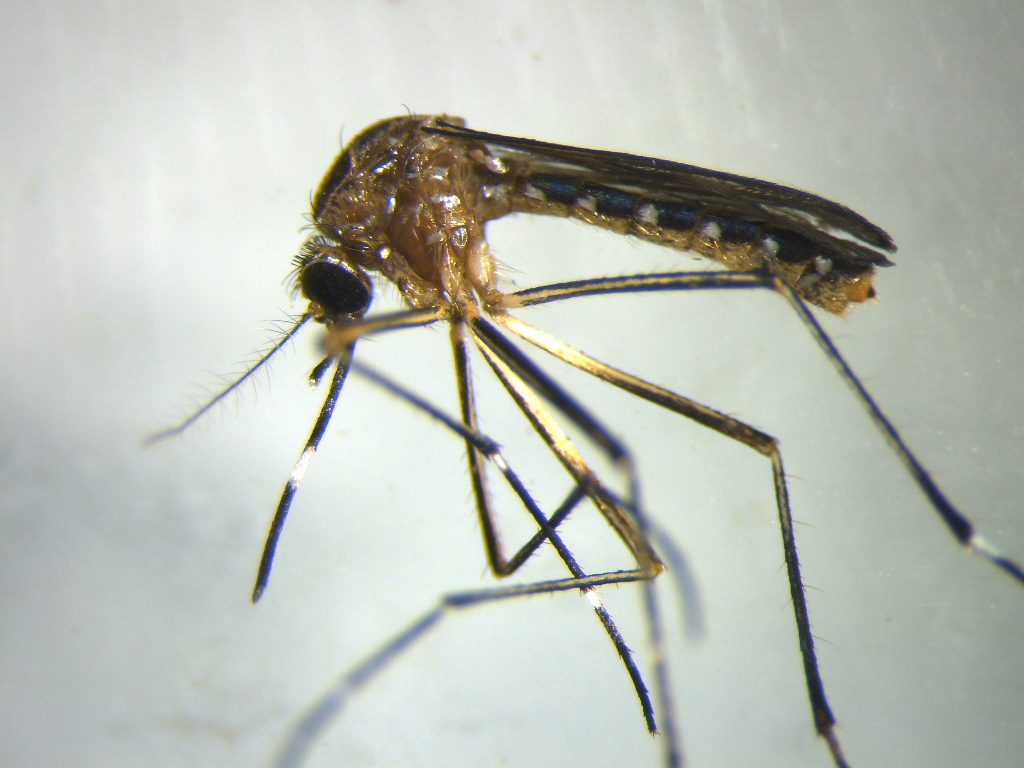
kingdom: Animalia
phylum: Arthropoda
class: Insecta
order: Diptera
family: Culicidae
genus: Aedes
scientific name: Aedes notoscriptus
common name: Australian backyard mosquito
